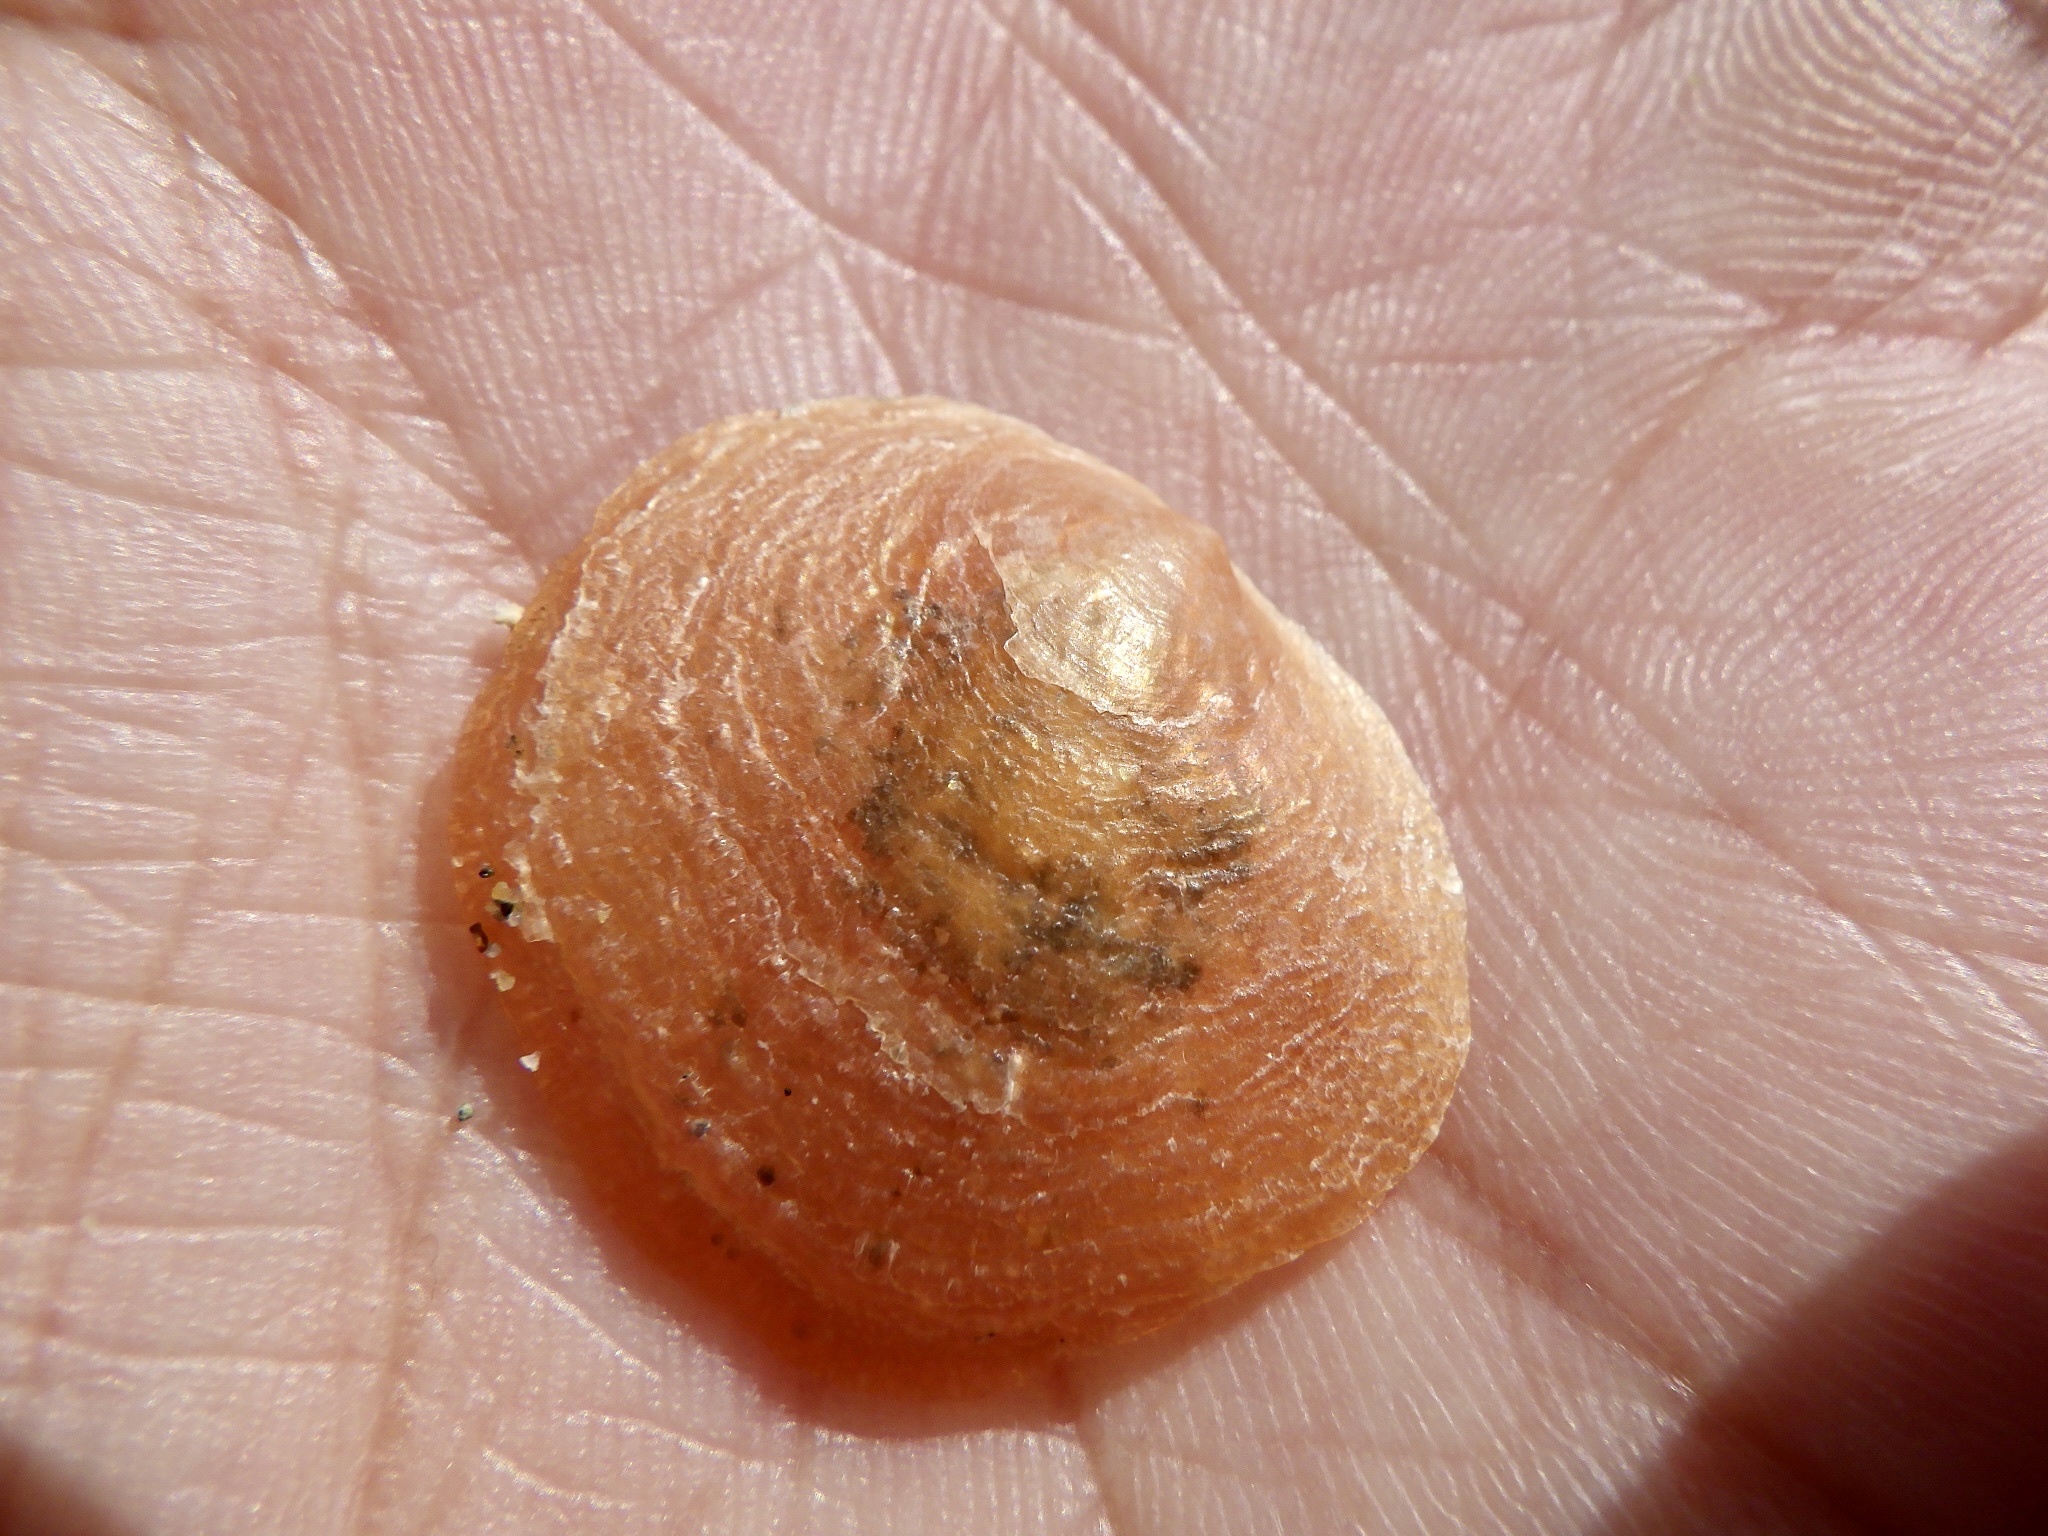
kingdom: Animalia
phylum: Mollusca
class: Bivalvia
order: Pectinida
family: Anomiidae
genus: Anomia
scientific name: Anomia chinensis
